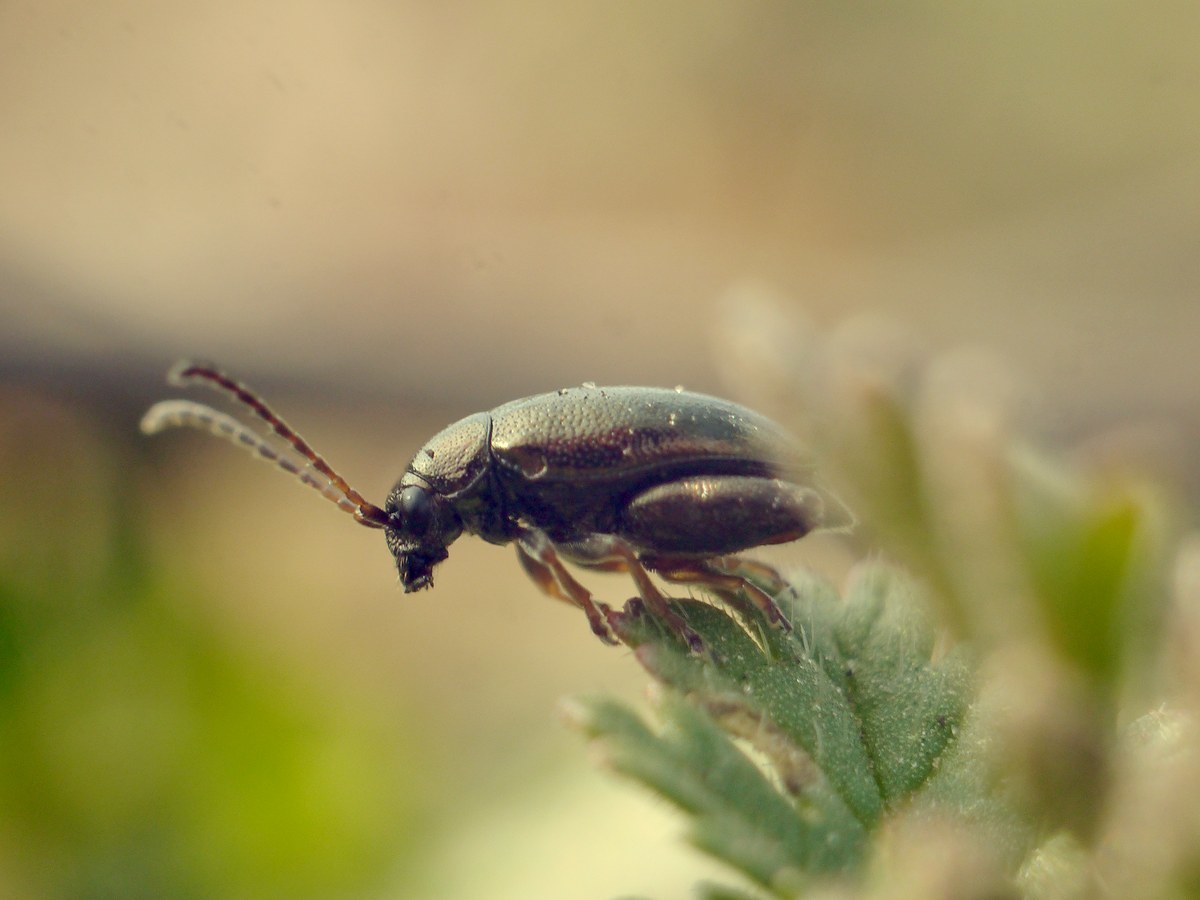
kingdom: Animalia
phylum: Arthropoda
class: Insecta
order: Coleoptera
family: Chrysomelidae
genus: Longitarsus
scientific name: Longitarsus echii
